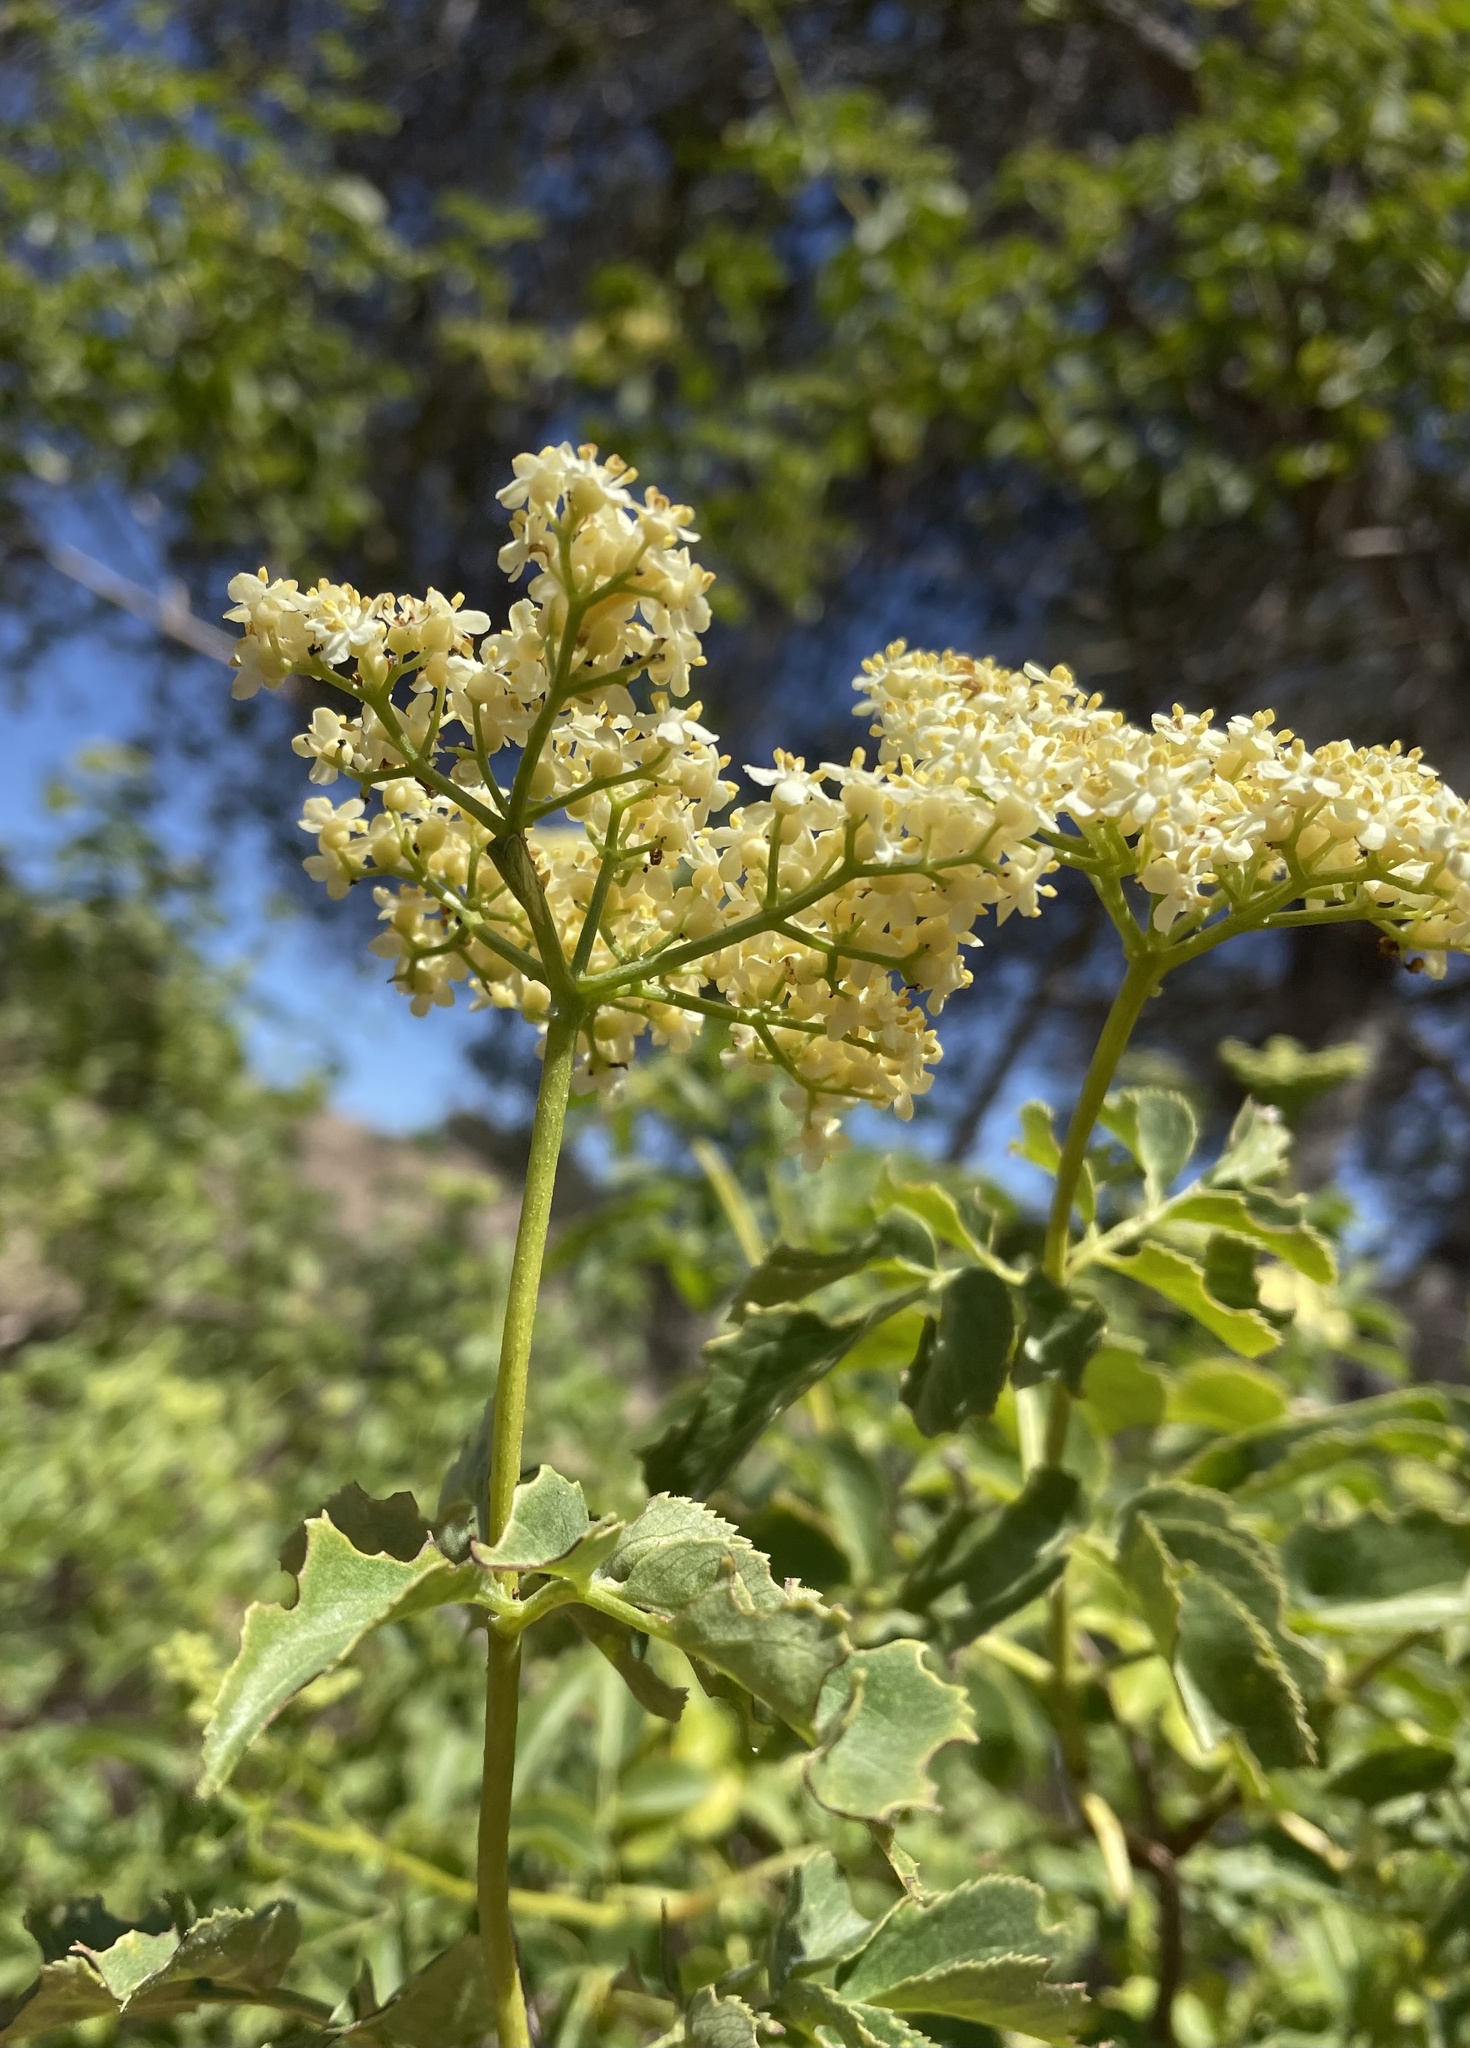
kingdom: Plantae
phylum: Tracheophyta
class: Magnoliopsida
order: Dipsacales
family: Viburnaceae
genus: Sambucus
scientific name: Sambucus cerulea
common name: Blue elder
